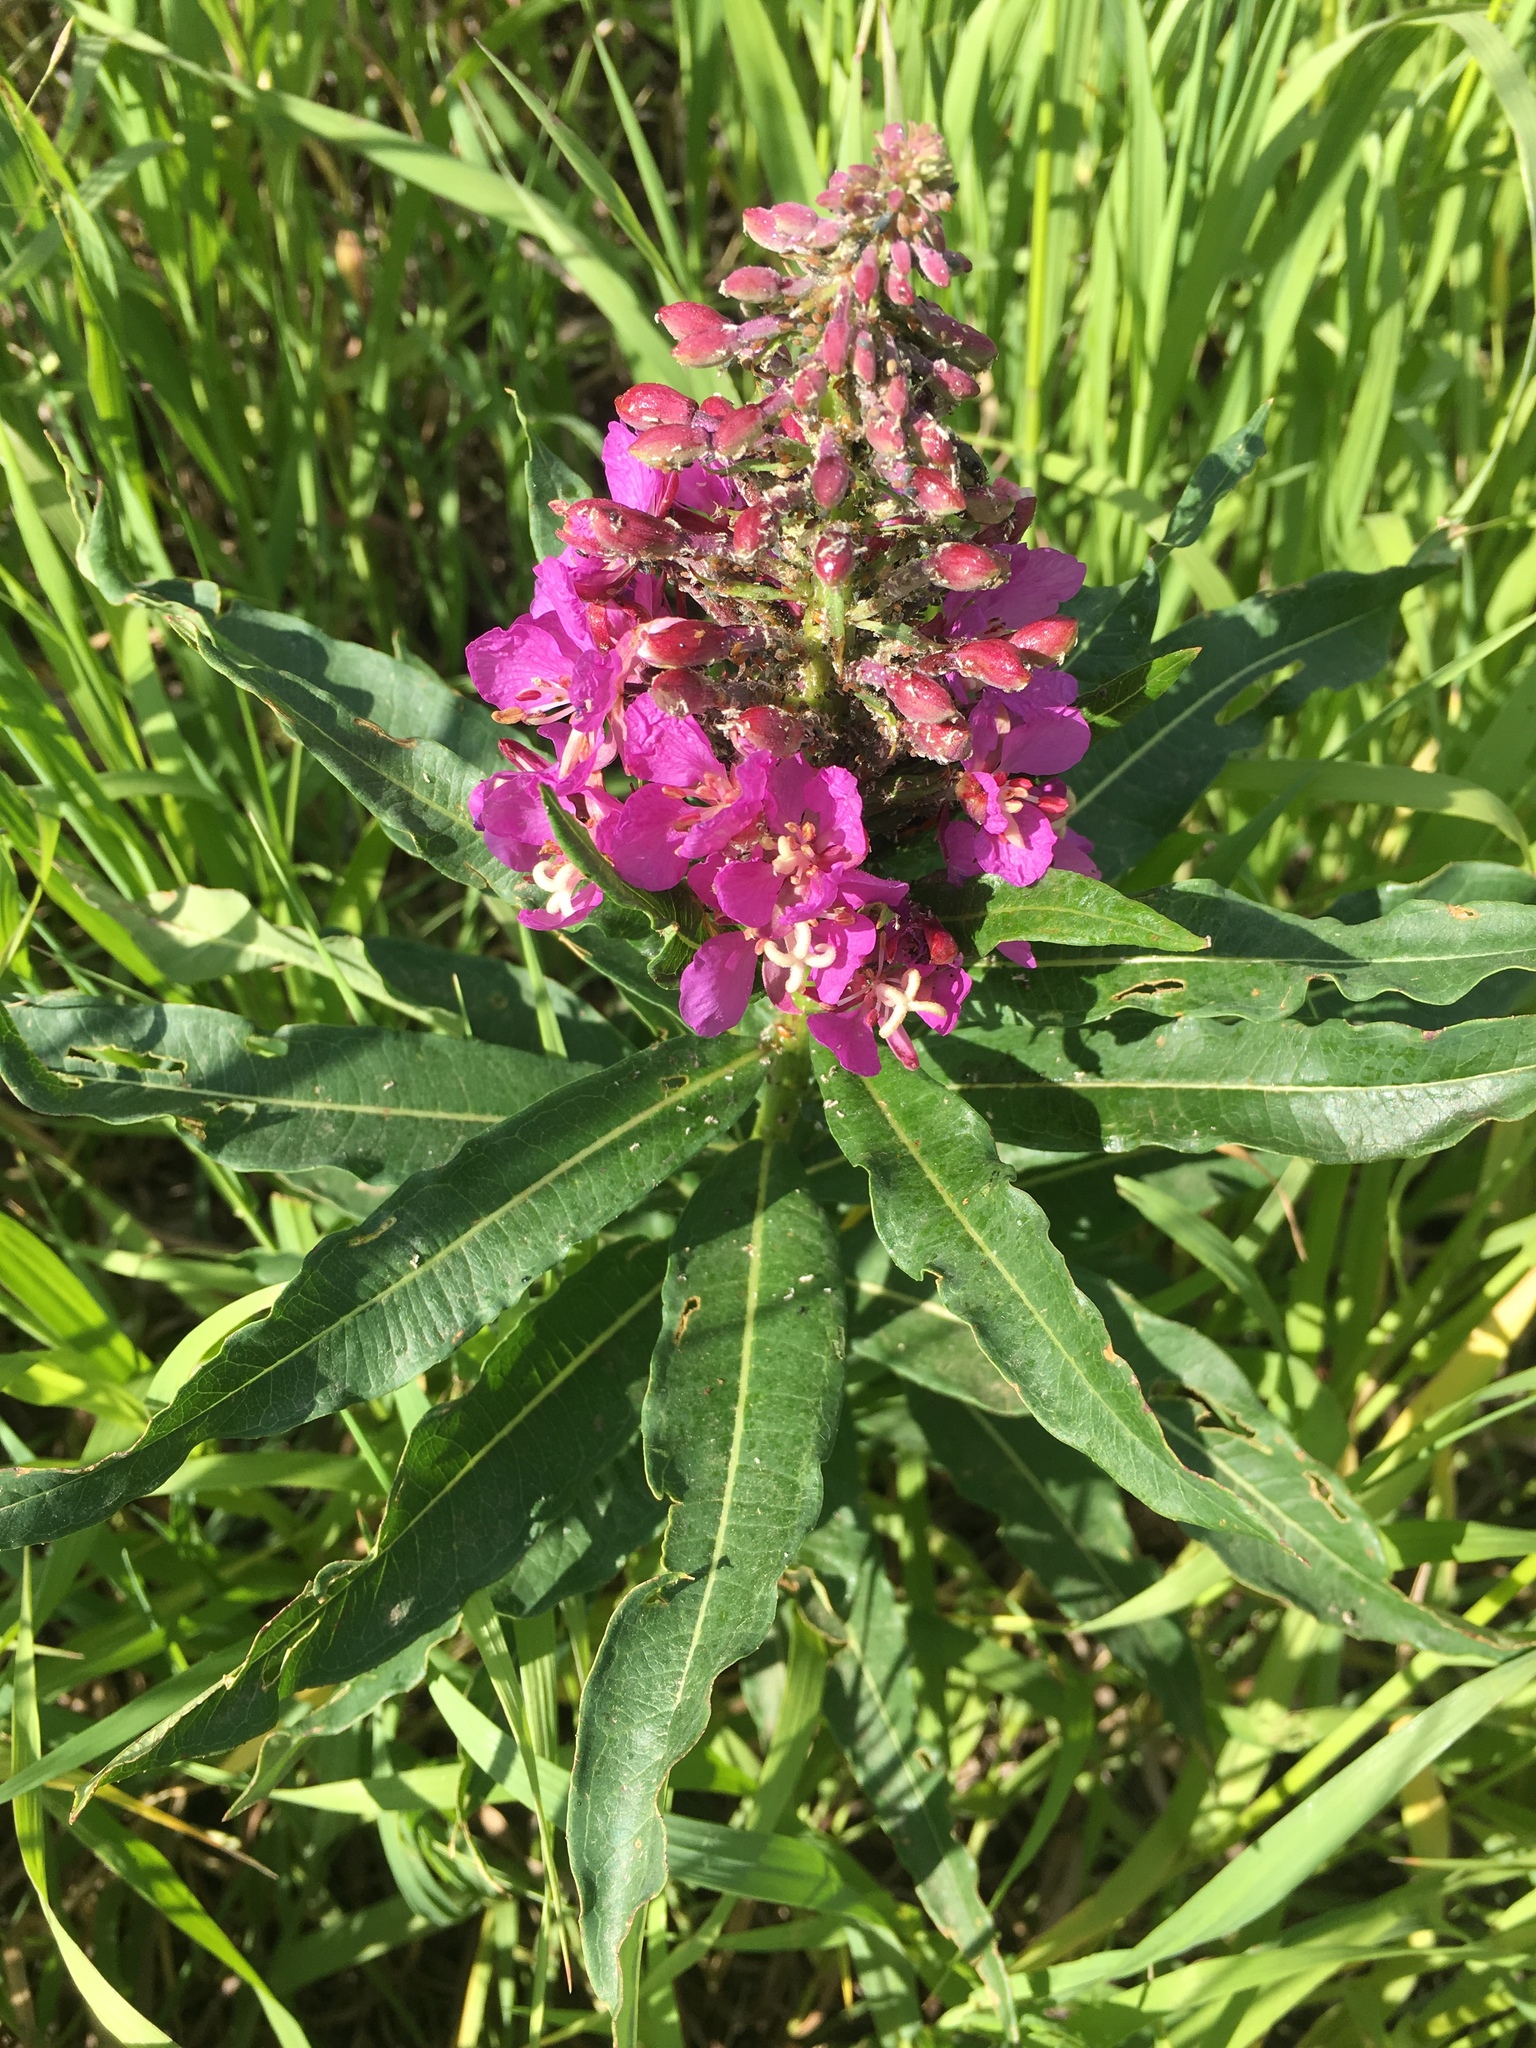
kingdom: Plantae
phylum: Tracheophyta
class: Magnoliopsida
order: Myrtales
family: Onagraceae
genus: Chamaenerion
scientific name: Chamaenerion angustifolium
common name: Fireweed
